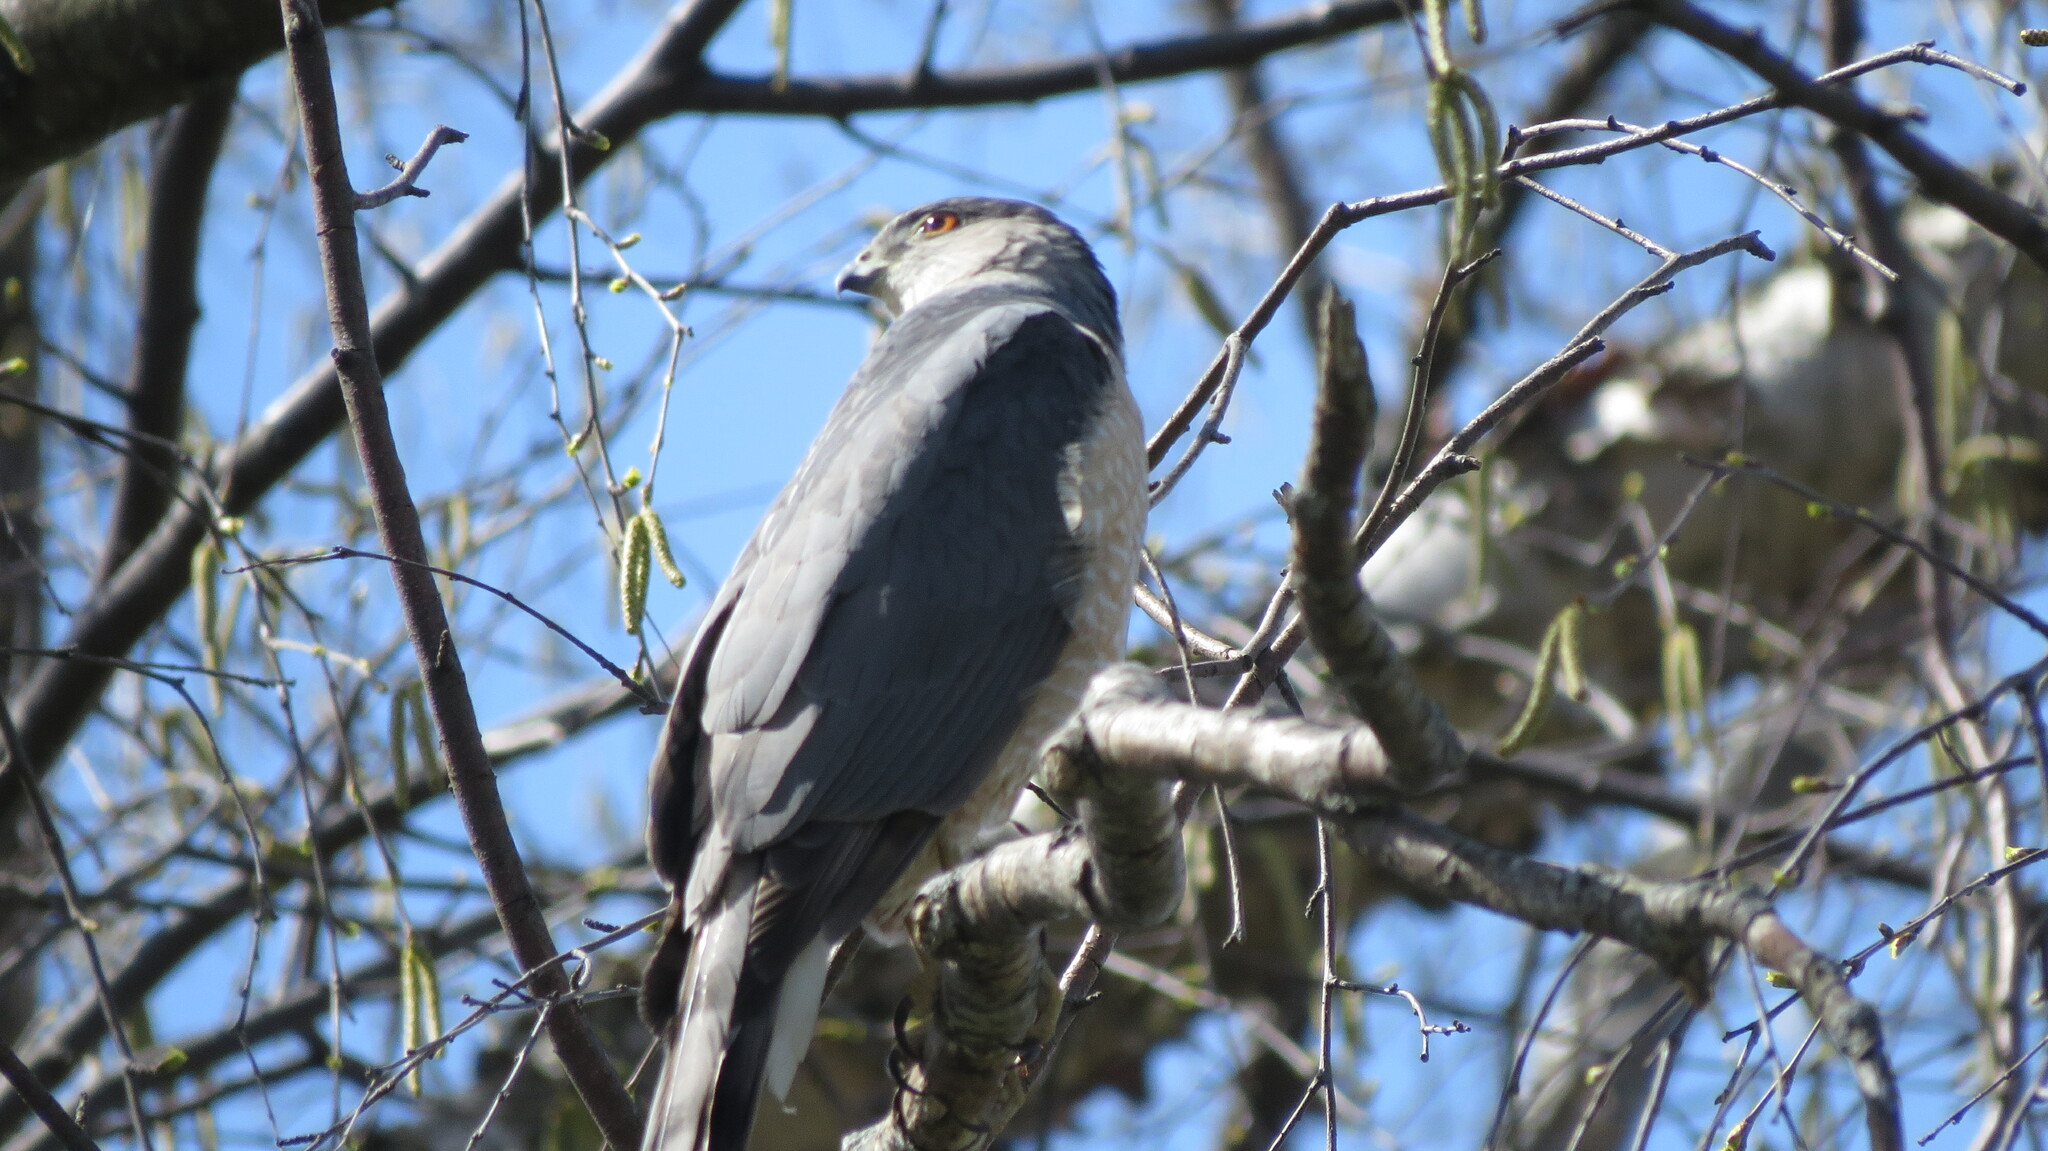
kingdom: Animalia
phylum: Chordata
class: Aves
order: Accipitriformes
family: Accipitridae
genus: Accipiter
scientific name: Accipiter cooperii
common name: Cooper's hawk
